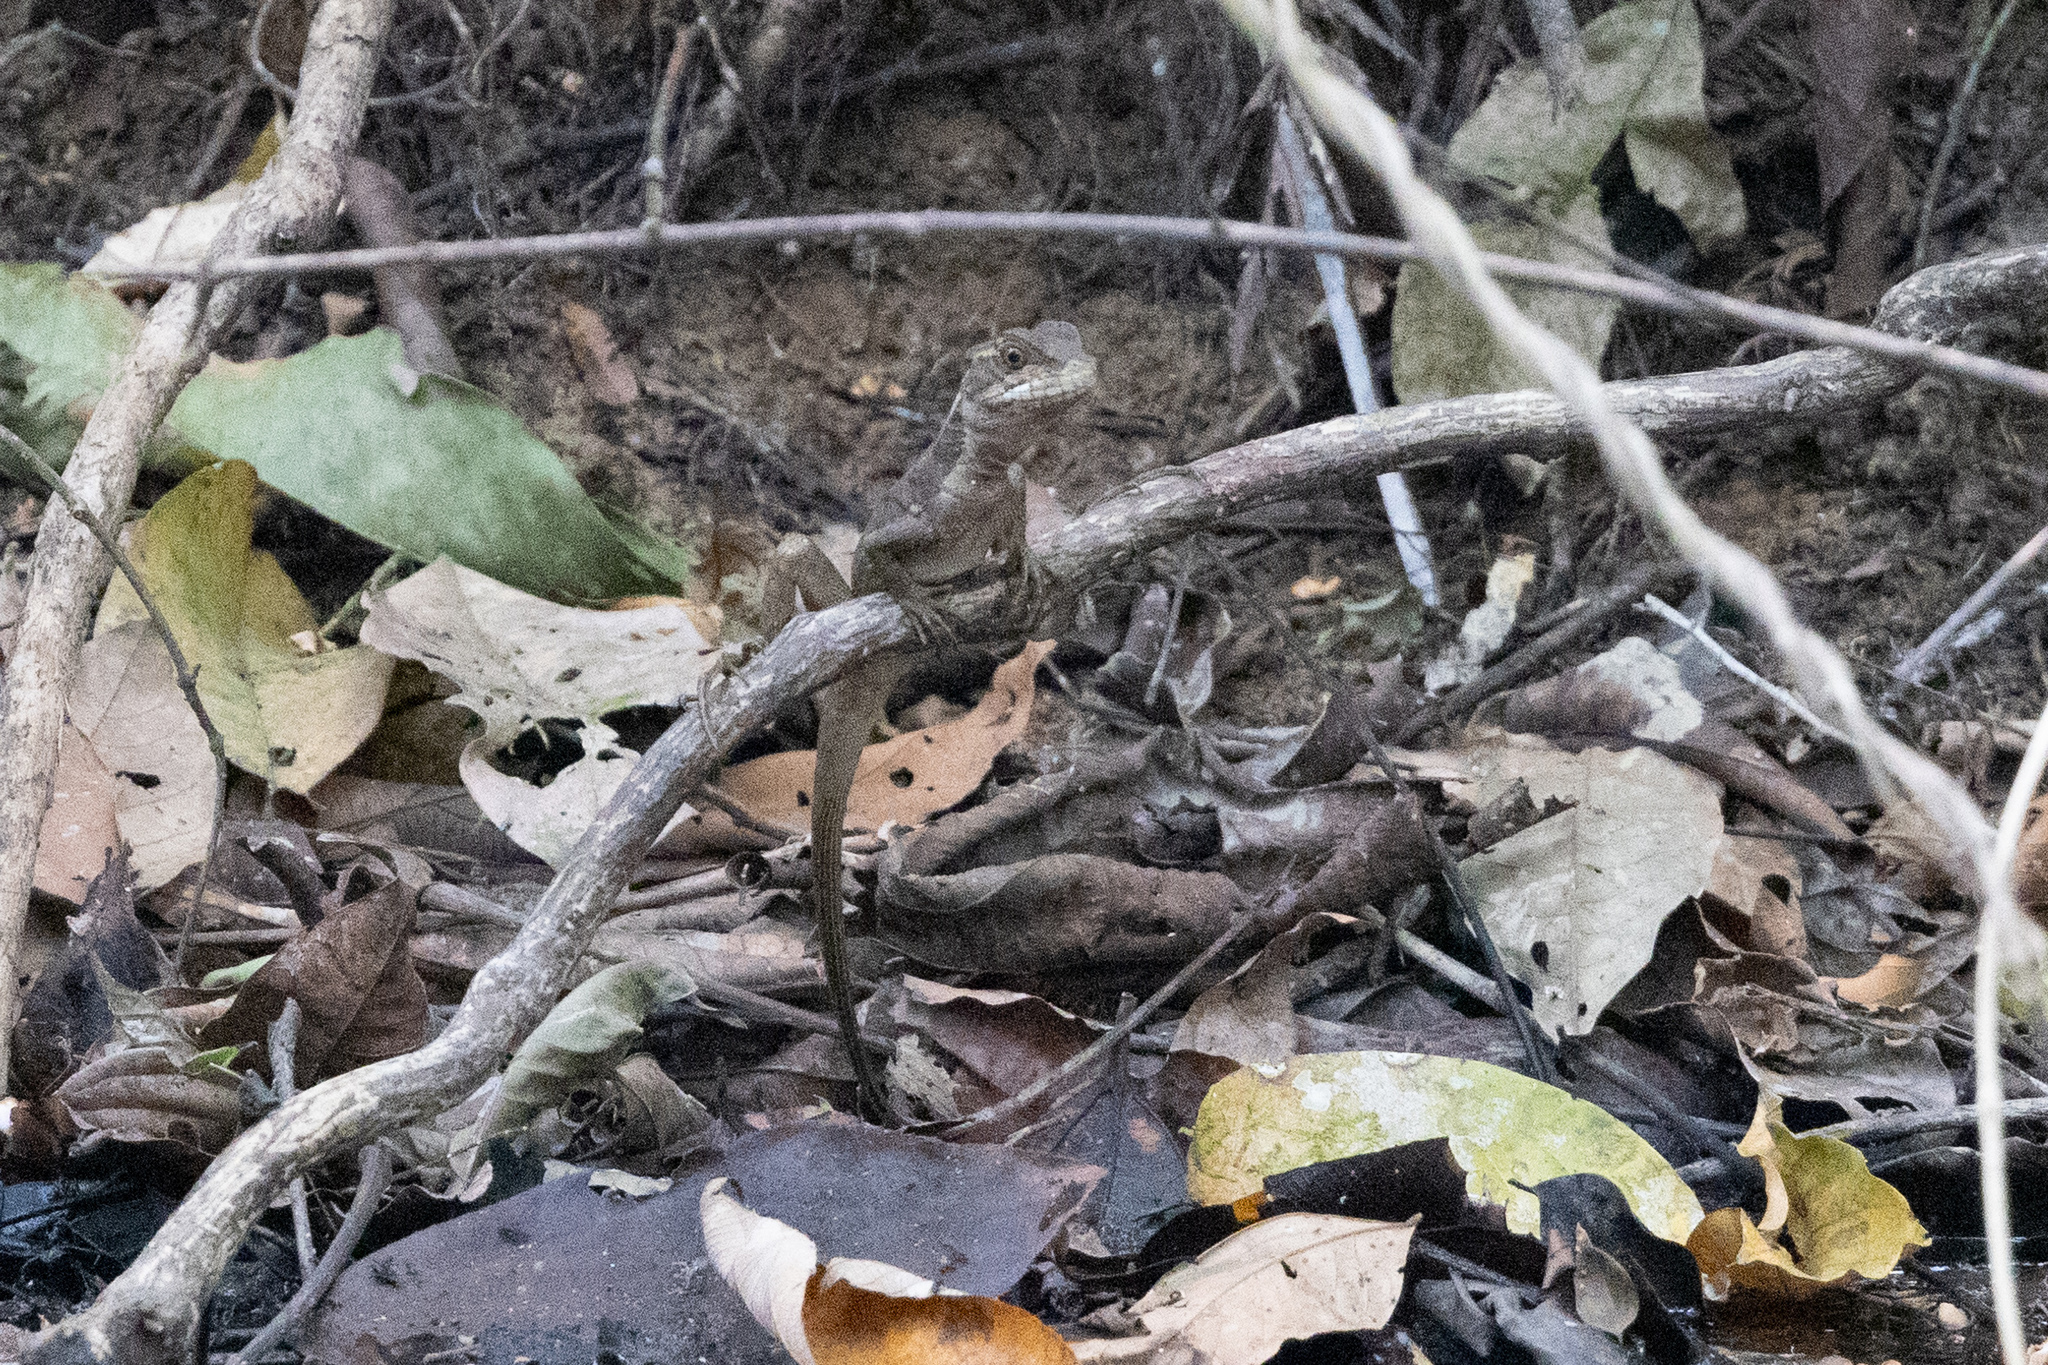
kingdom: Animalia
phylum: Chordata
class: Squamata
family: Corytophanidae
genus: Basiliscus
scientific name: Basiliscus basiliscus
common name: Common basilisk
